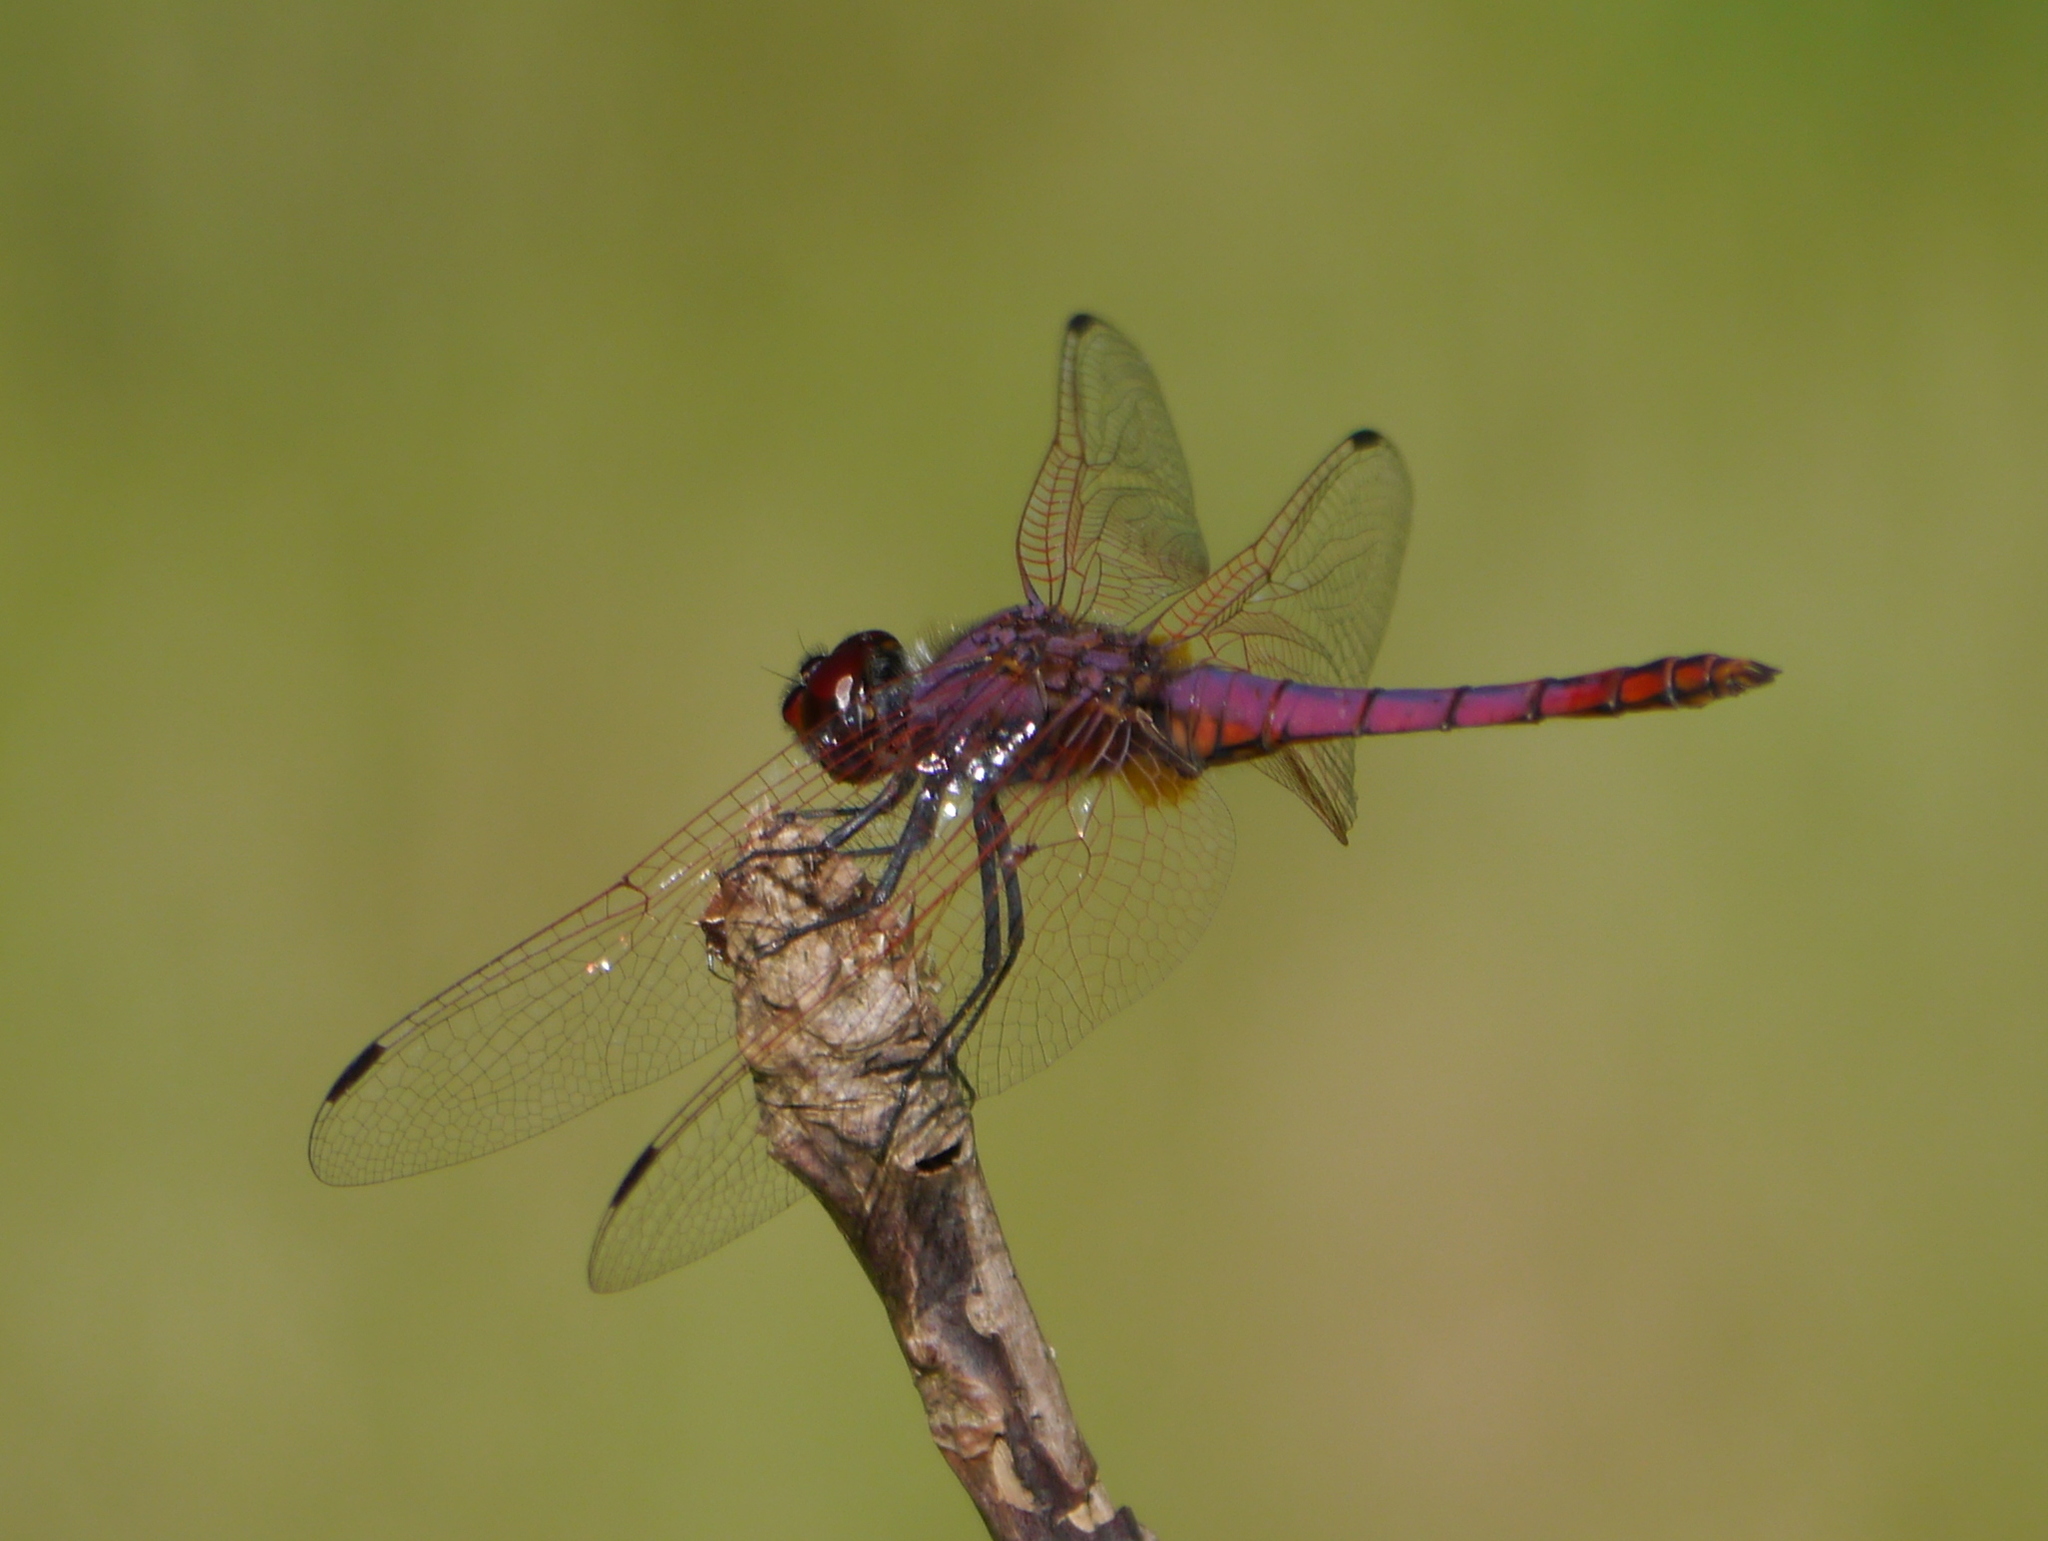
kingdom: Animalia
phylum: Arthropoda
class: Insecta
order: Odonata
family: Libellulidae
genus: Trithemis
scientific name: Trithemis annulata
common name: Violet dropwing
